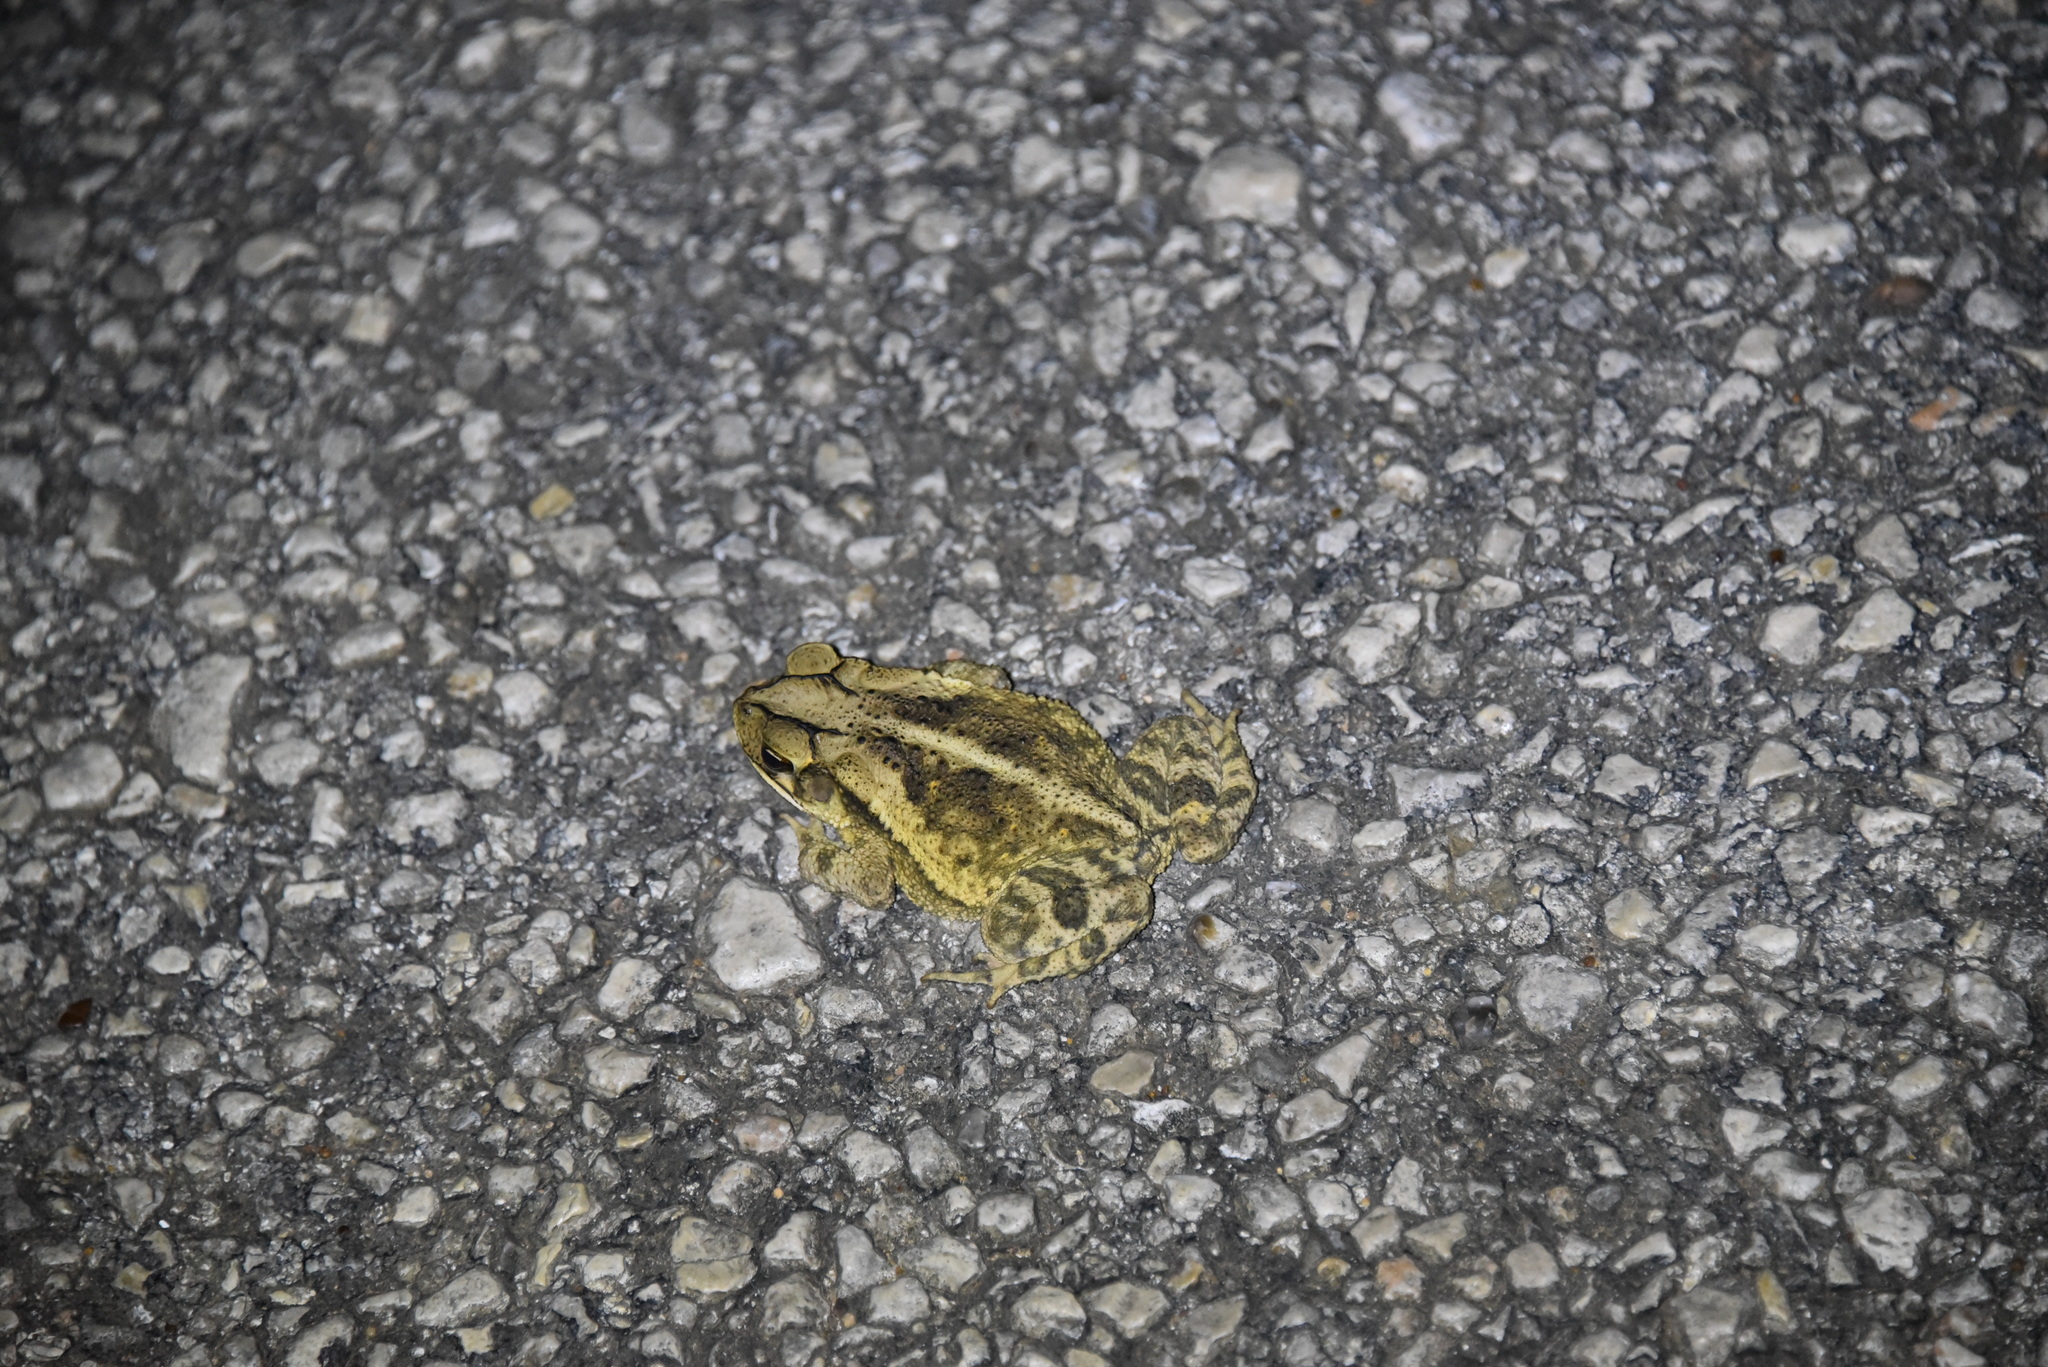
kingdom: Animalia
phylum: Chordata
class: Amphibia
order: Anura
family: Bufonidae
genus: Incilius
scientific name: Incilius nebulifer
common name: Gulf coast toad
